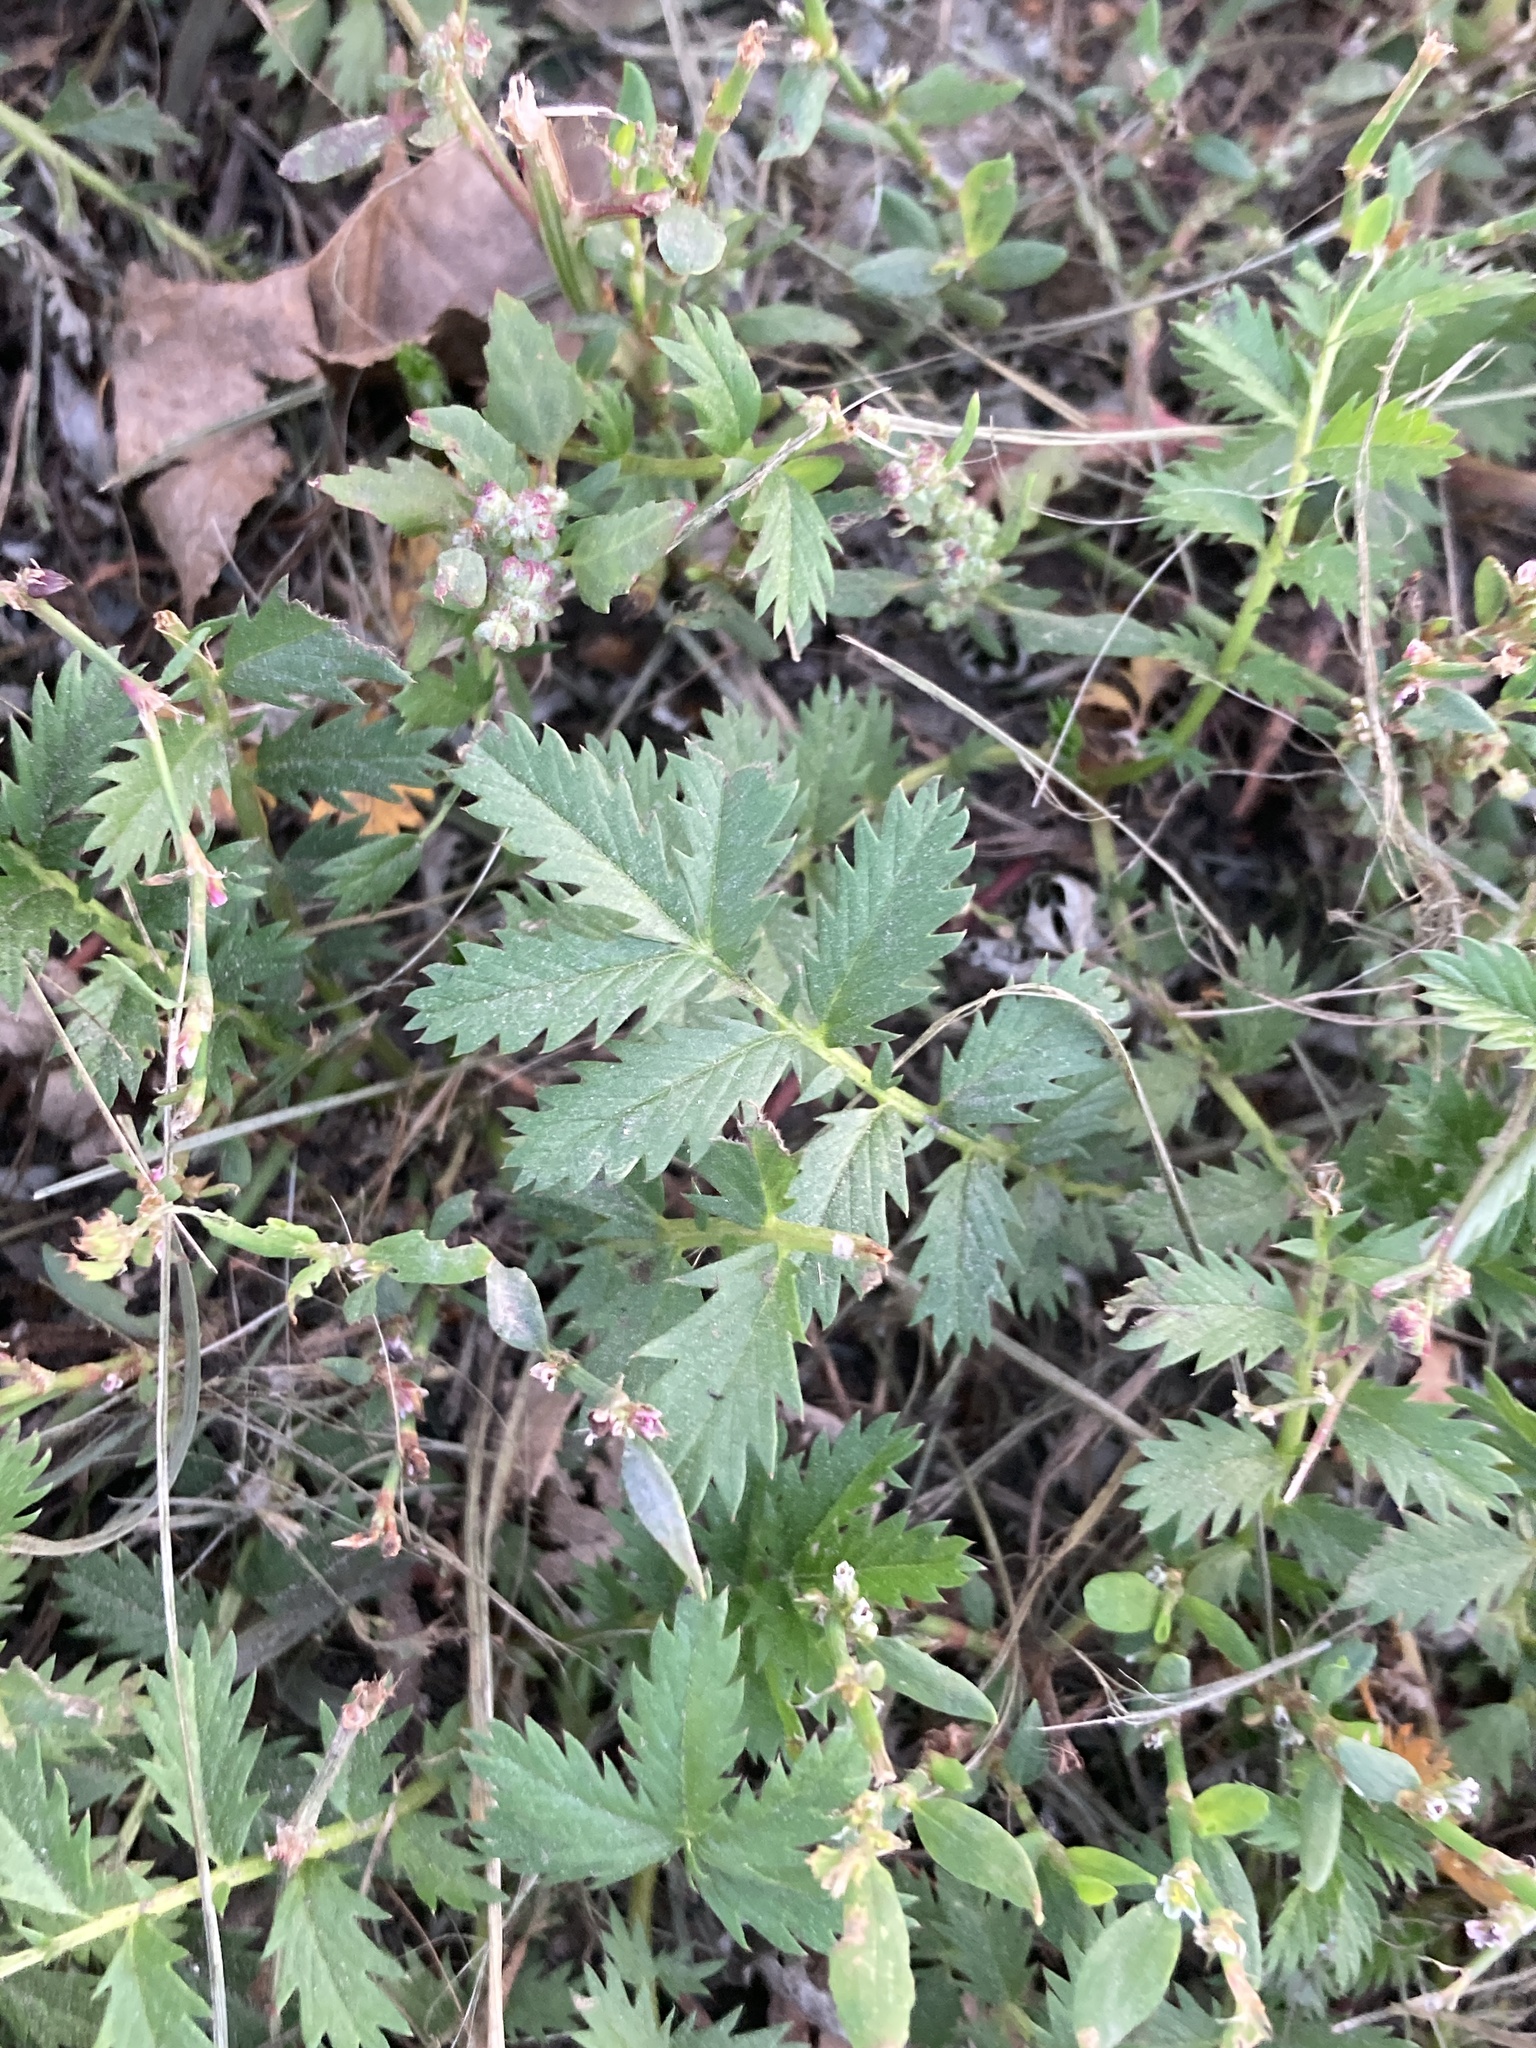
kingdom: Plantae
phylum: Tracheophyta
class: Magnoliopsida
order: Rosales
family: Rosaceae
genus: Argentina
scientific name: Argentina anserina
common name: Common silverweed
